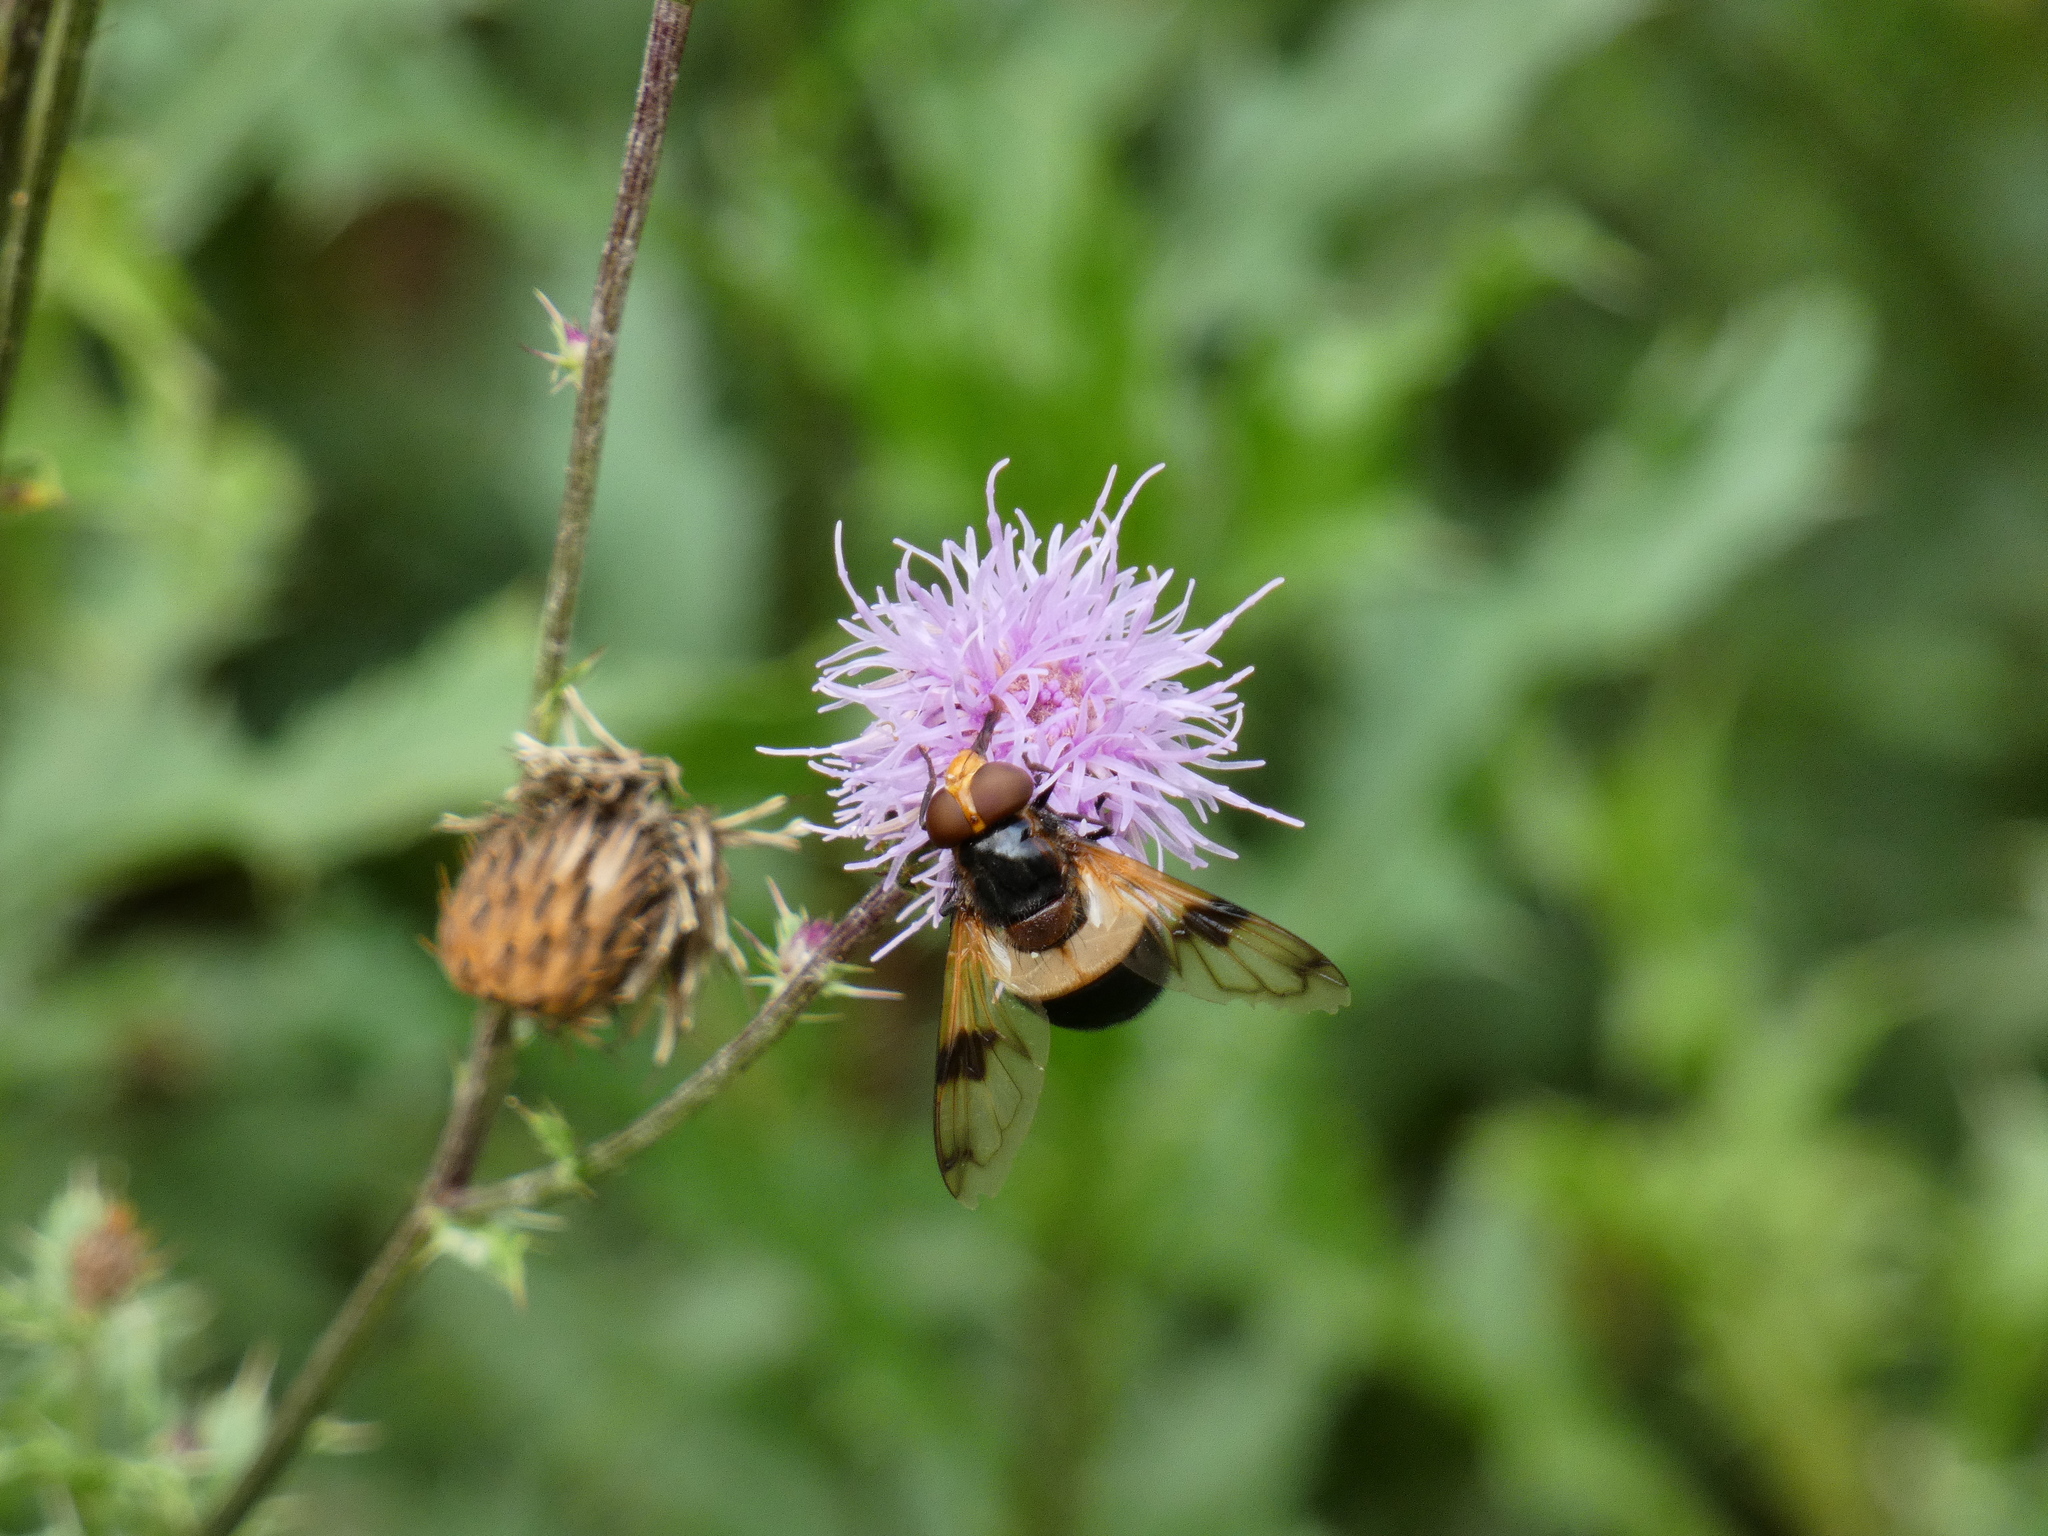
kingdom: Animalia
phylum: Arthropoda
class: Insecta
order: Diptera
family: Syrphidae
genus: Volucella
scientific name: Volucella pellucens
